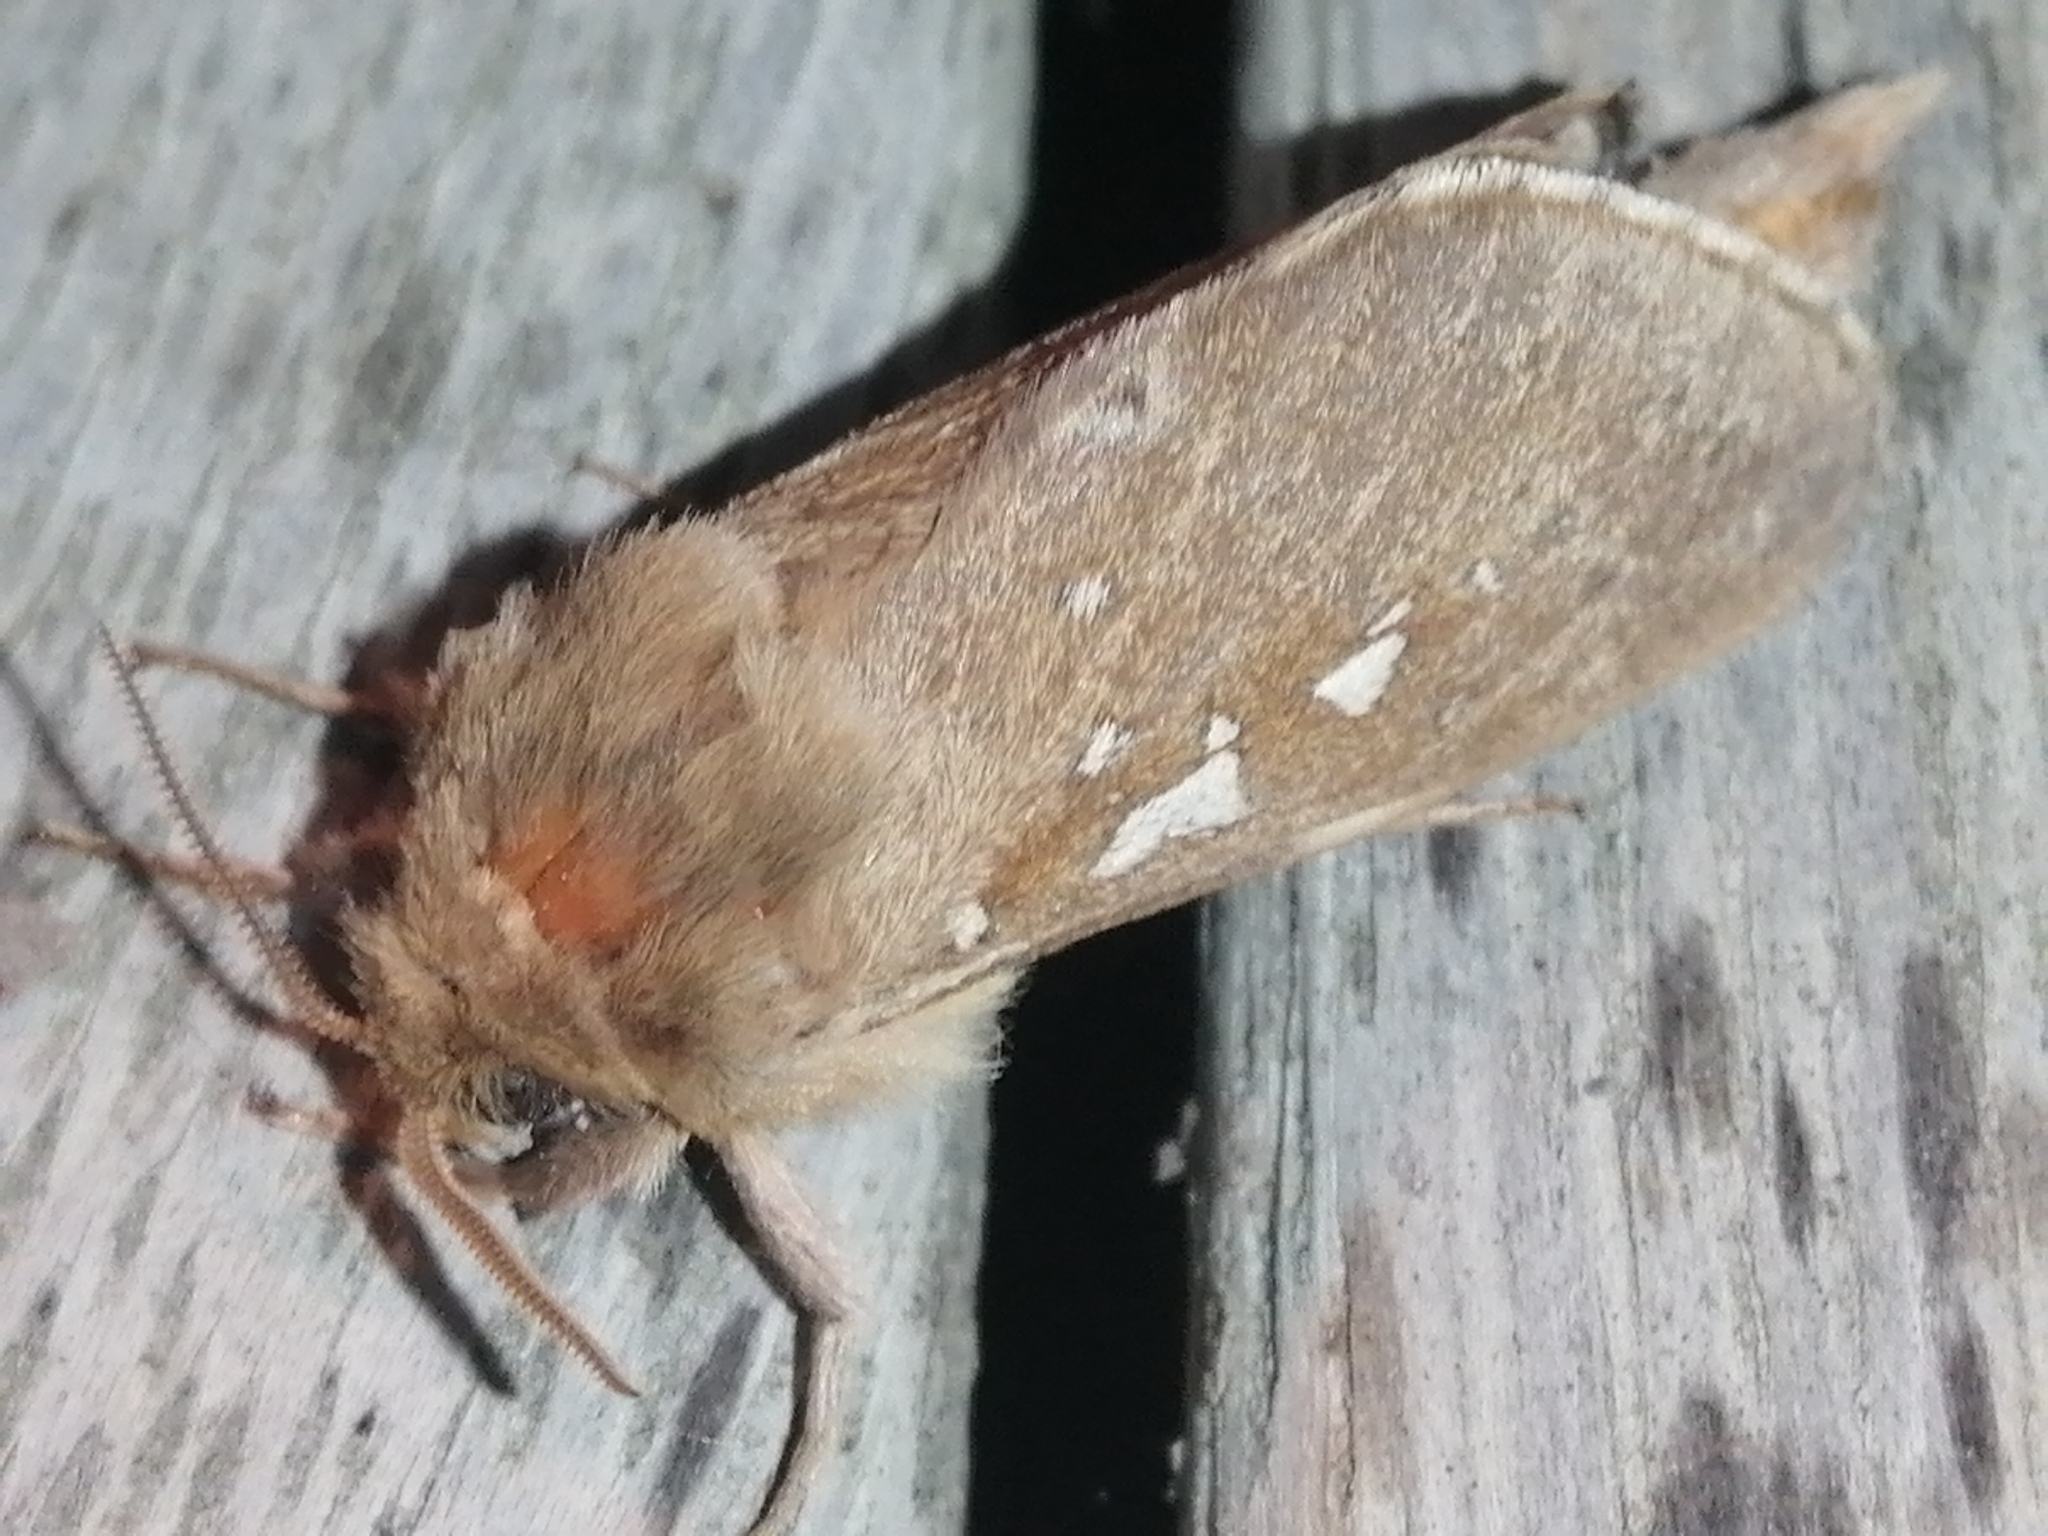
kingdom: Animalia
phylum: Arthropoda
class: Insecta
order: Lepidoptera
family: Hepialidae
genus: Wiseana
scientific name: Wiseana copularis
